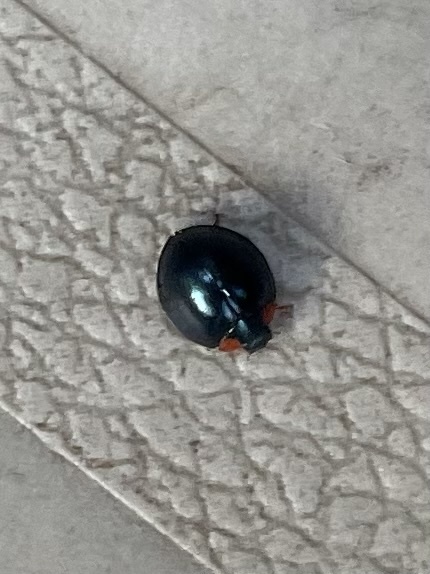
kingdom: Animalia
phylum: Arthropoda
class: Insecta
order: Coleoptera
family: Coccinellidae
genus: Curinus
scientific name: Curinus coeruleus
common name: Ladybird beetle
